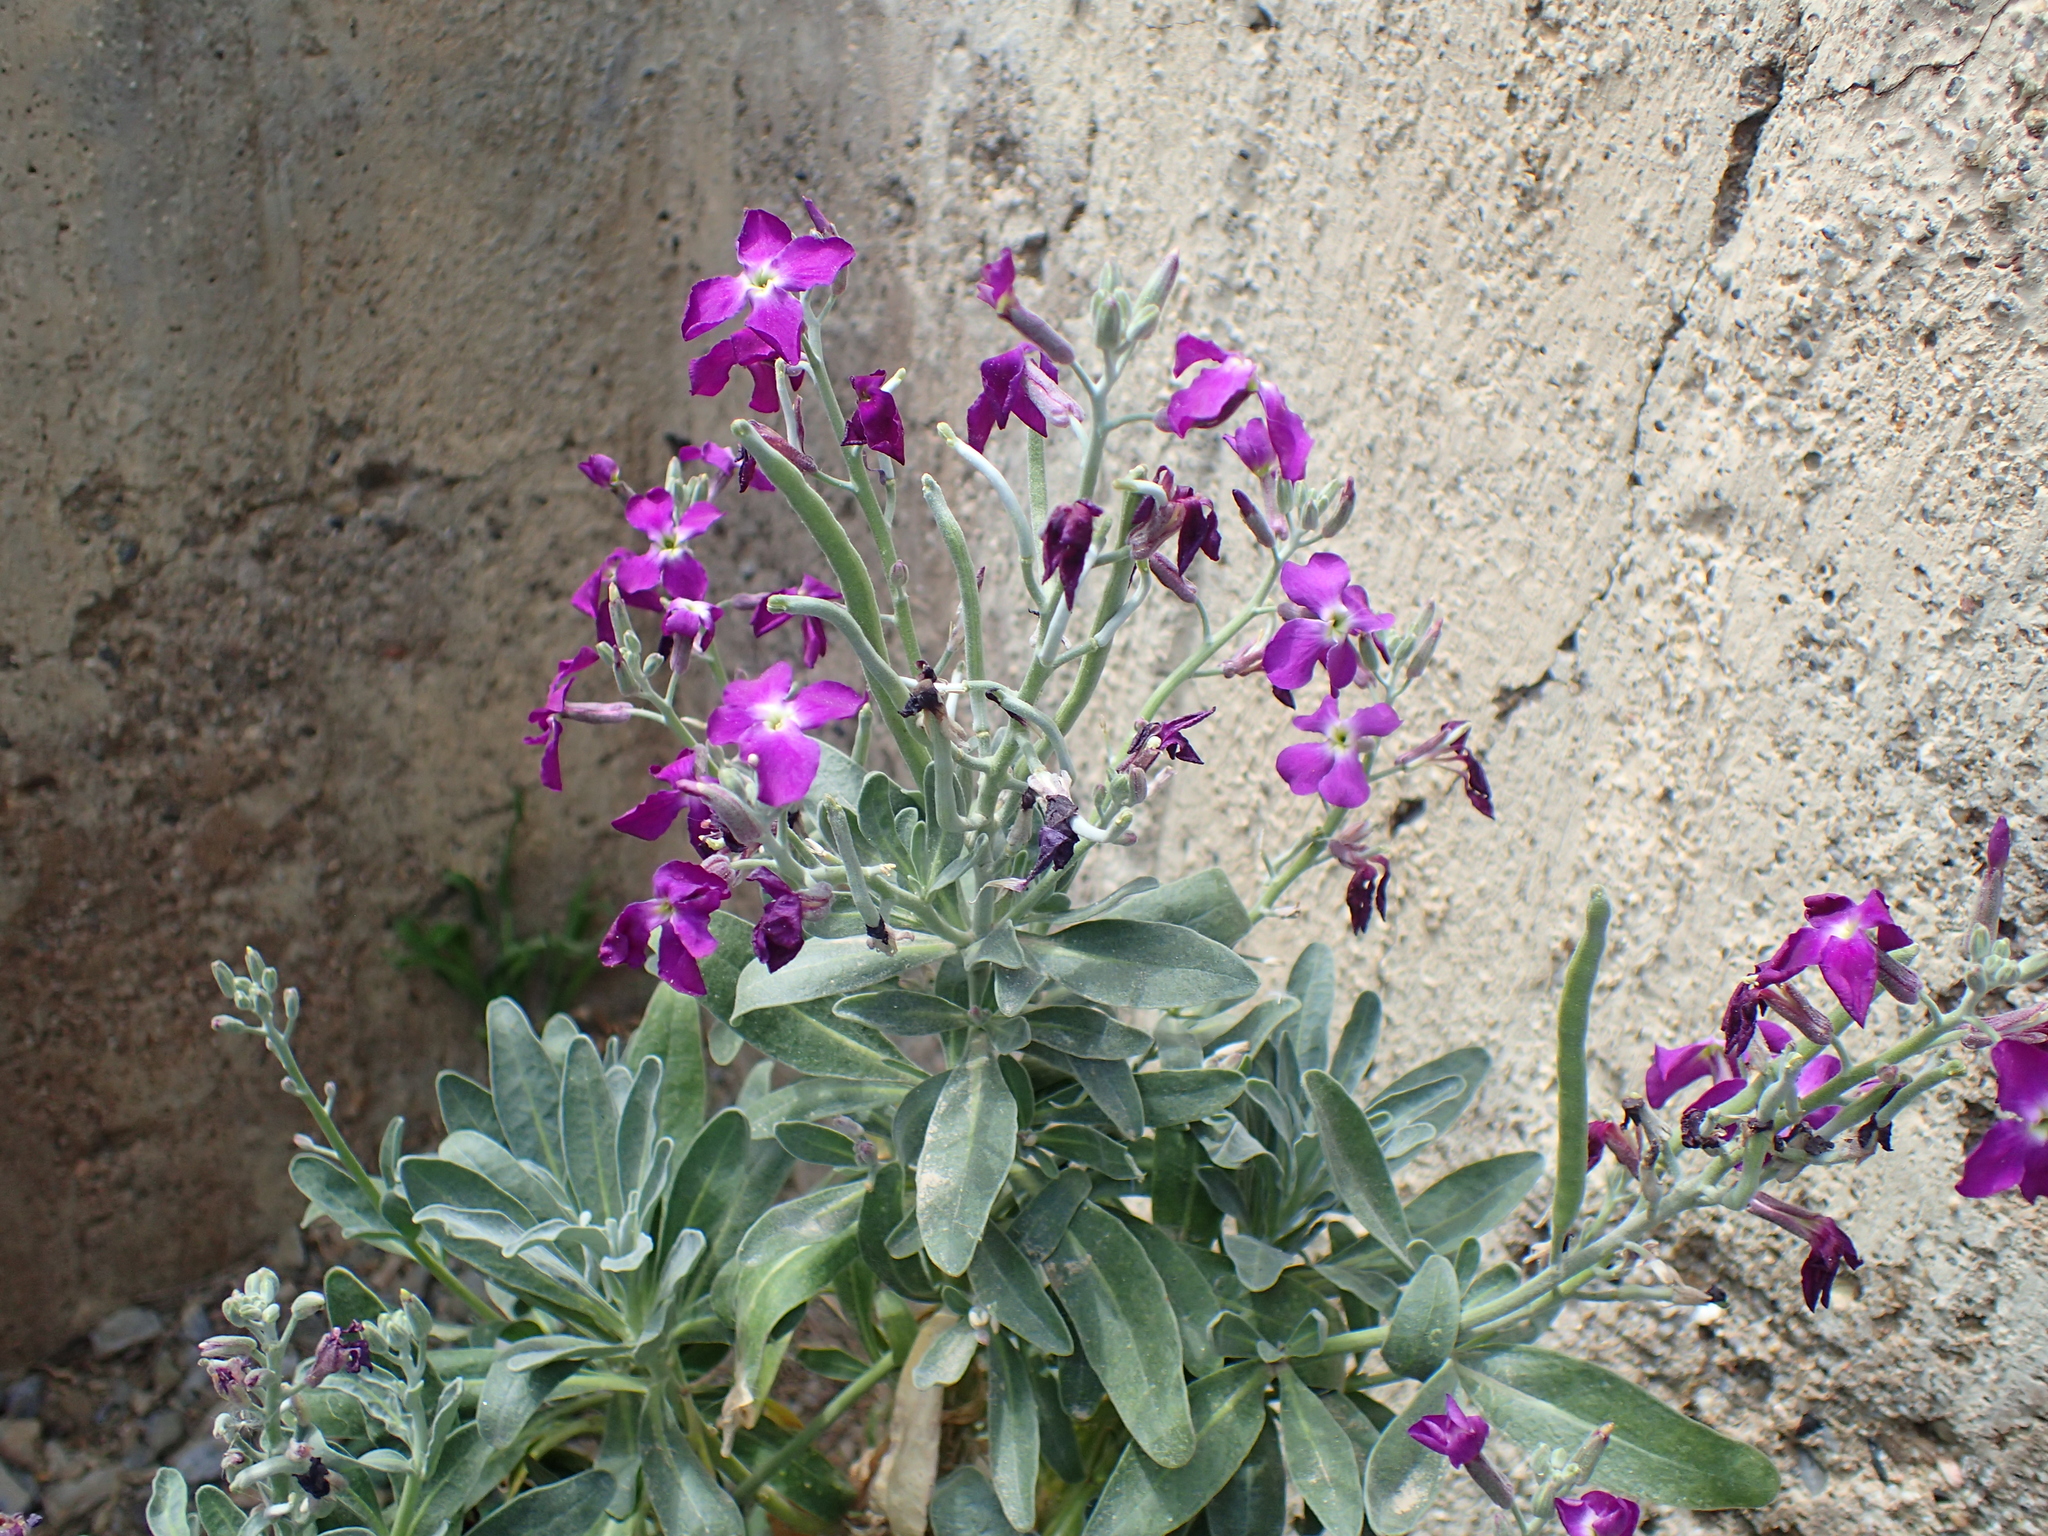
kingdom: Plantae
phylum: Tracheophyta
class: Magnoliopsida
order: Brassicales
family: Brassicaceae
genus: Matthiola
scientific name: Matthiola incana
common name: Hoary stock
